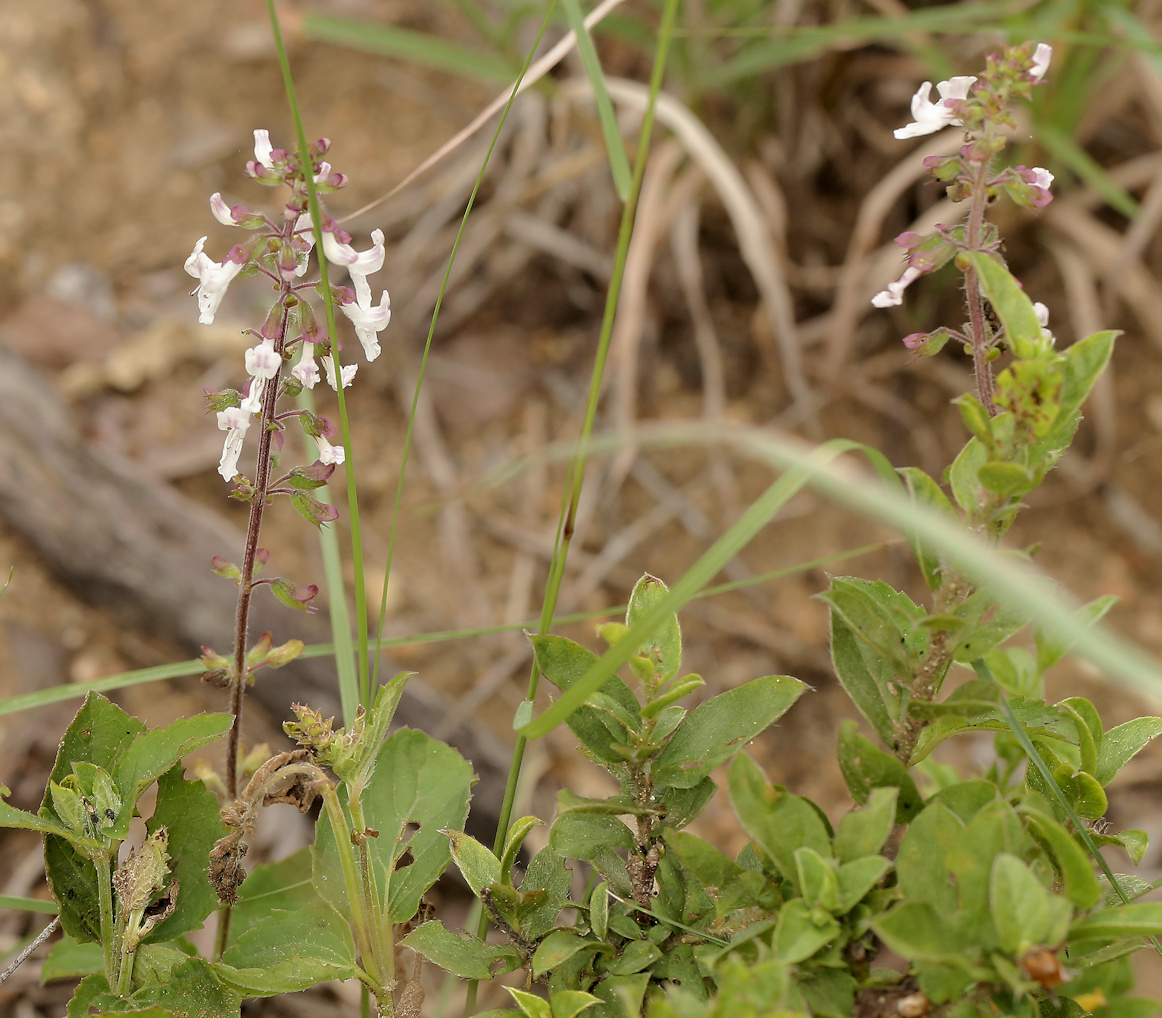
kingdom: Plantae
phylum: Tracheophyta
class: Magnoliopsida
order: Lamiales
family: Lamiaceae
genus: Orthosiphon
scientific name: Orthosiphon thymiflorus
